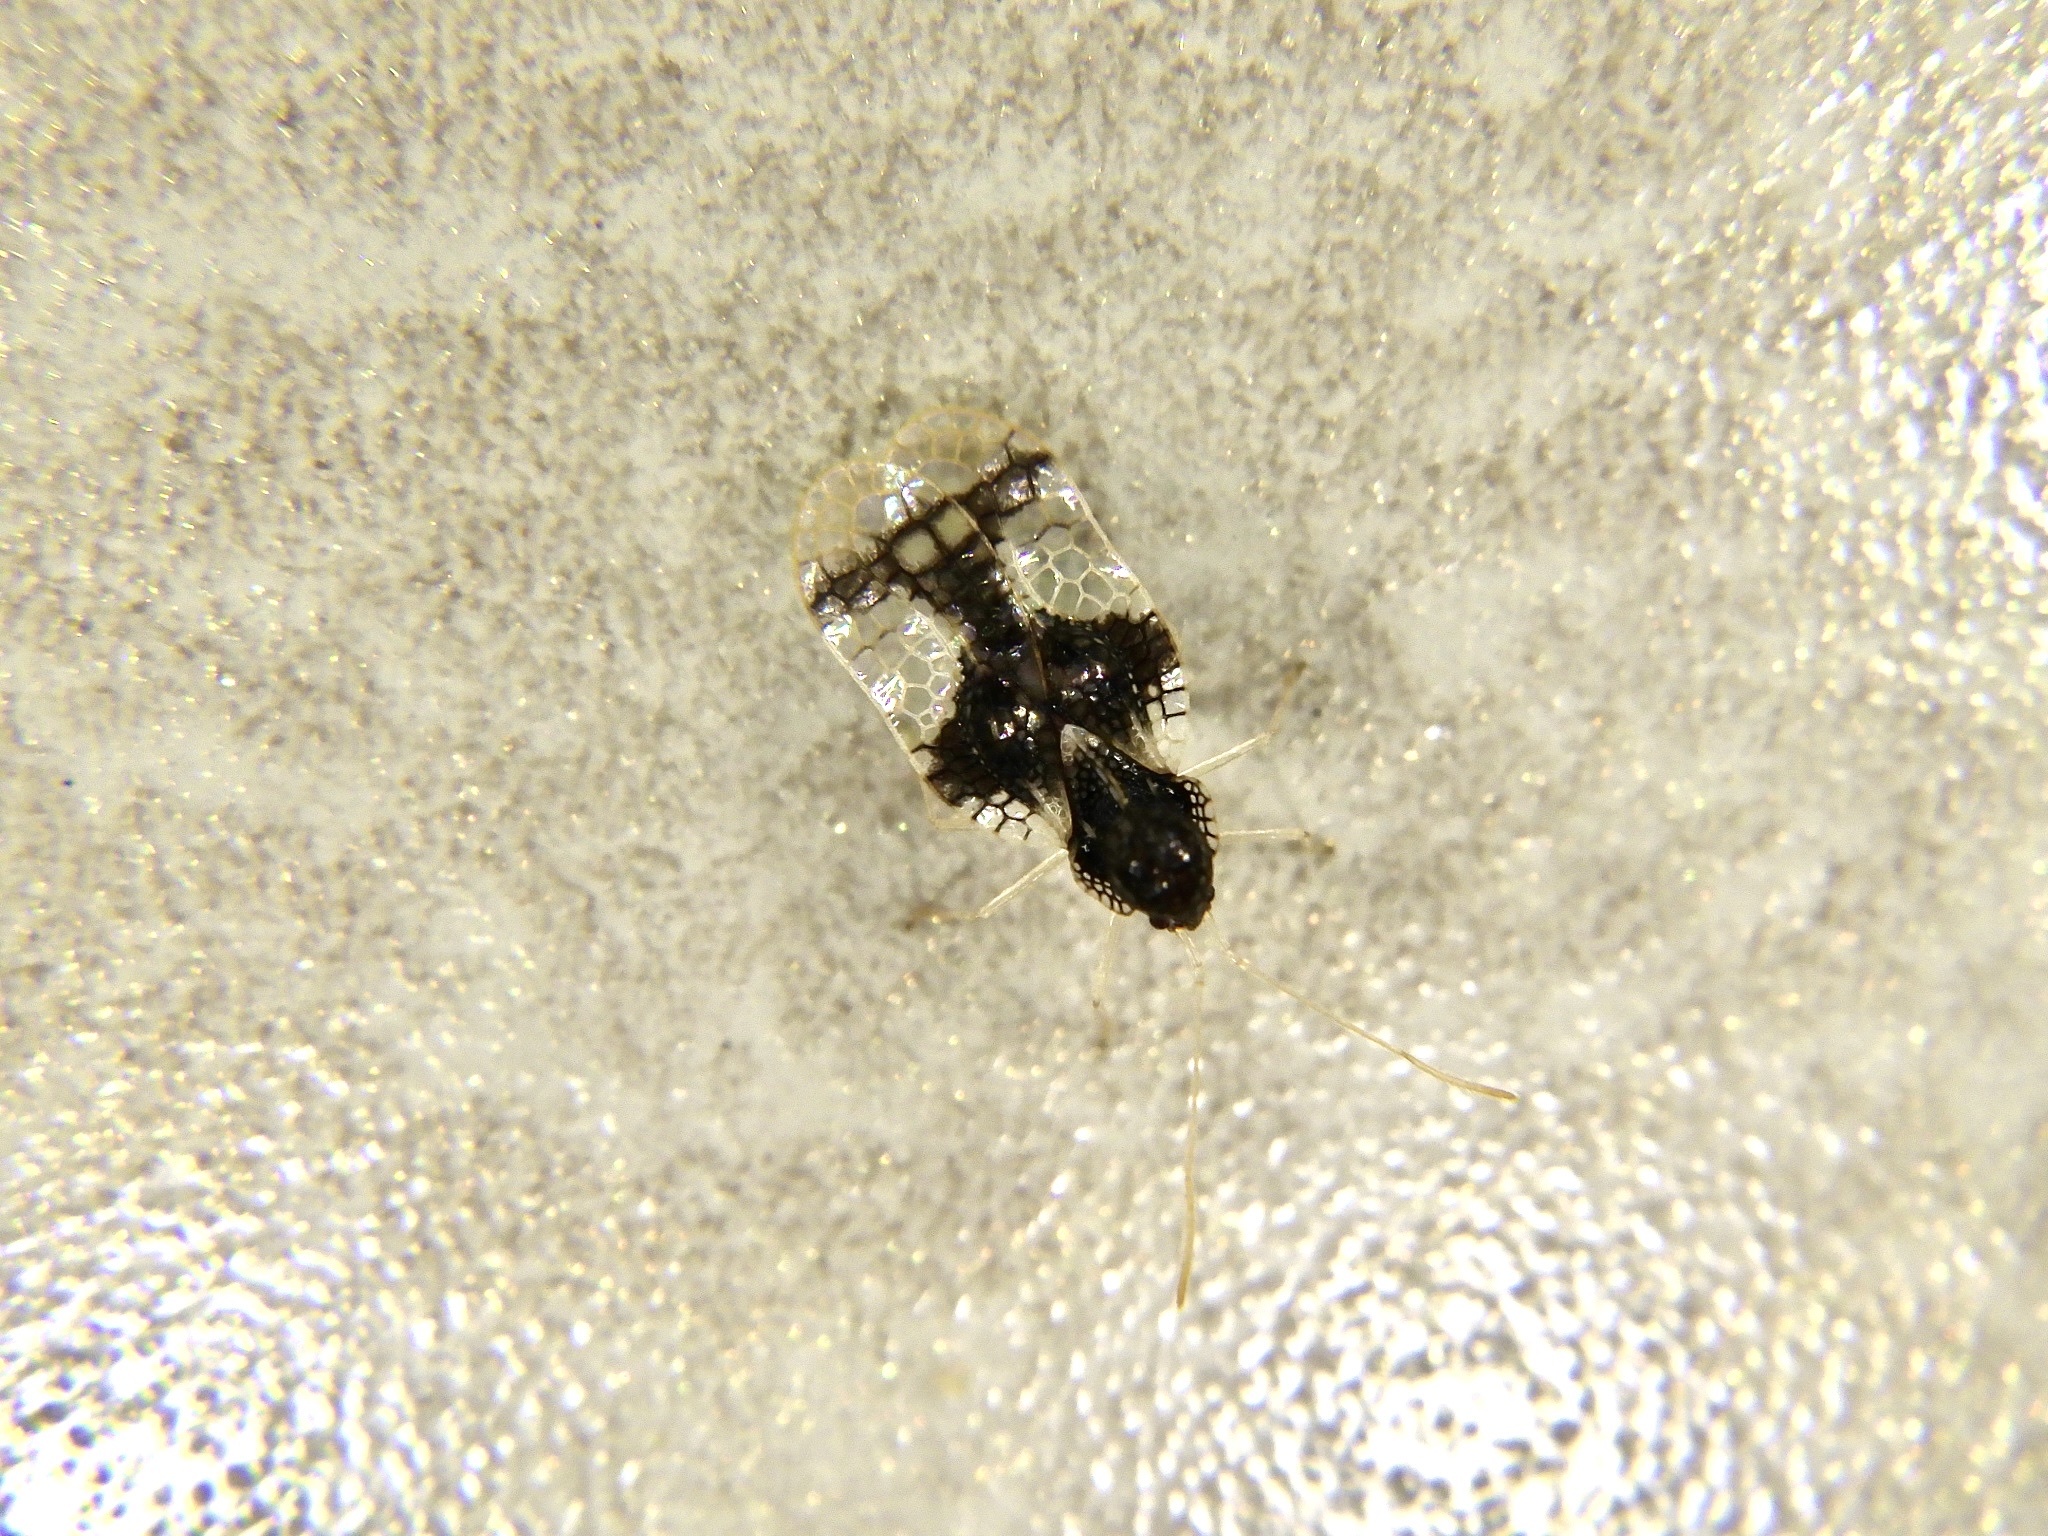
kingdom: Animalia
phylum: Arthropoda
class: Insecta
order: Hemiptera
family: Tingidae
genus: Stephanitis
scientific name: Stephanitis takeyai
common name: Andromeda lacebug
